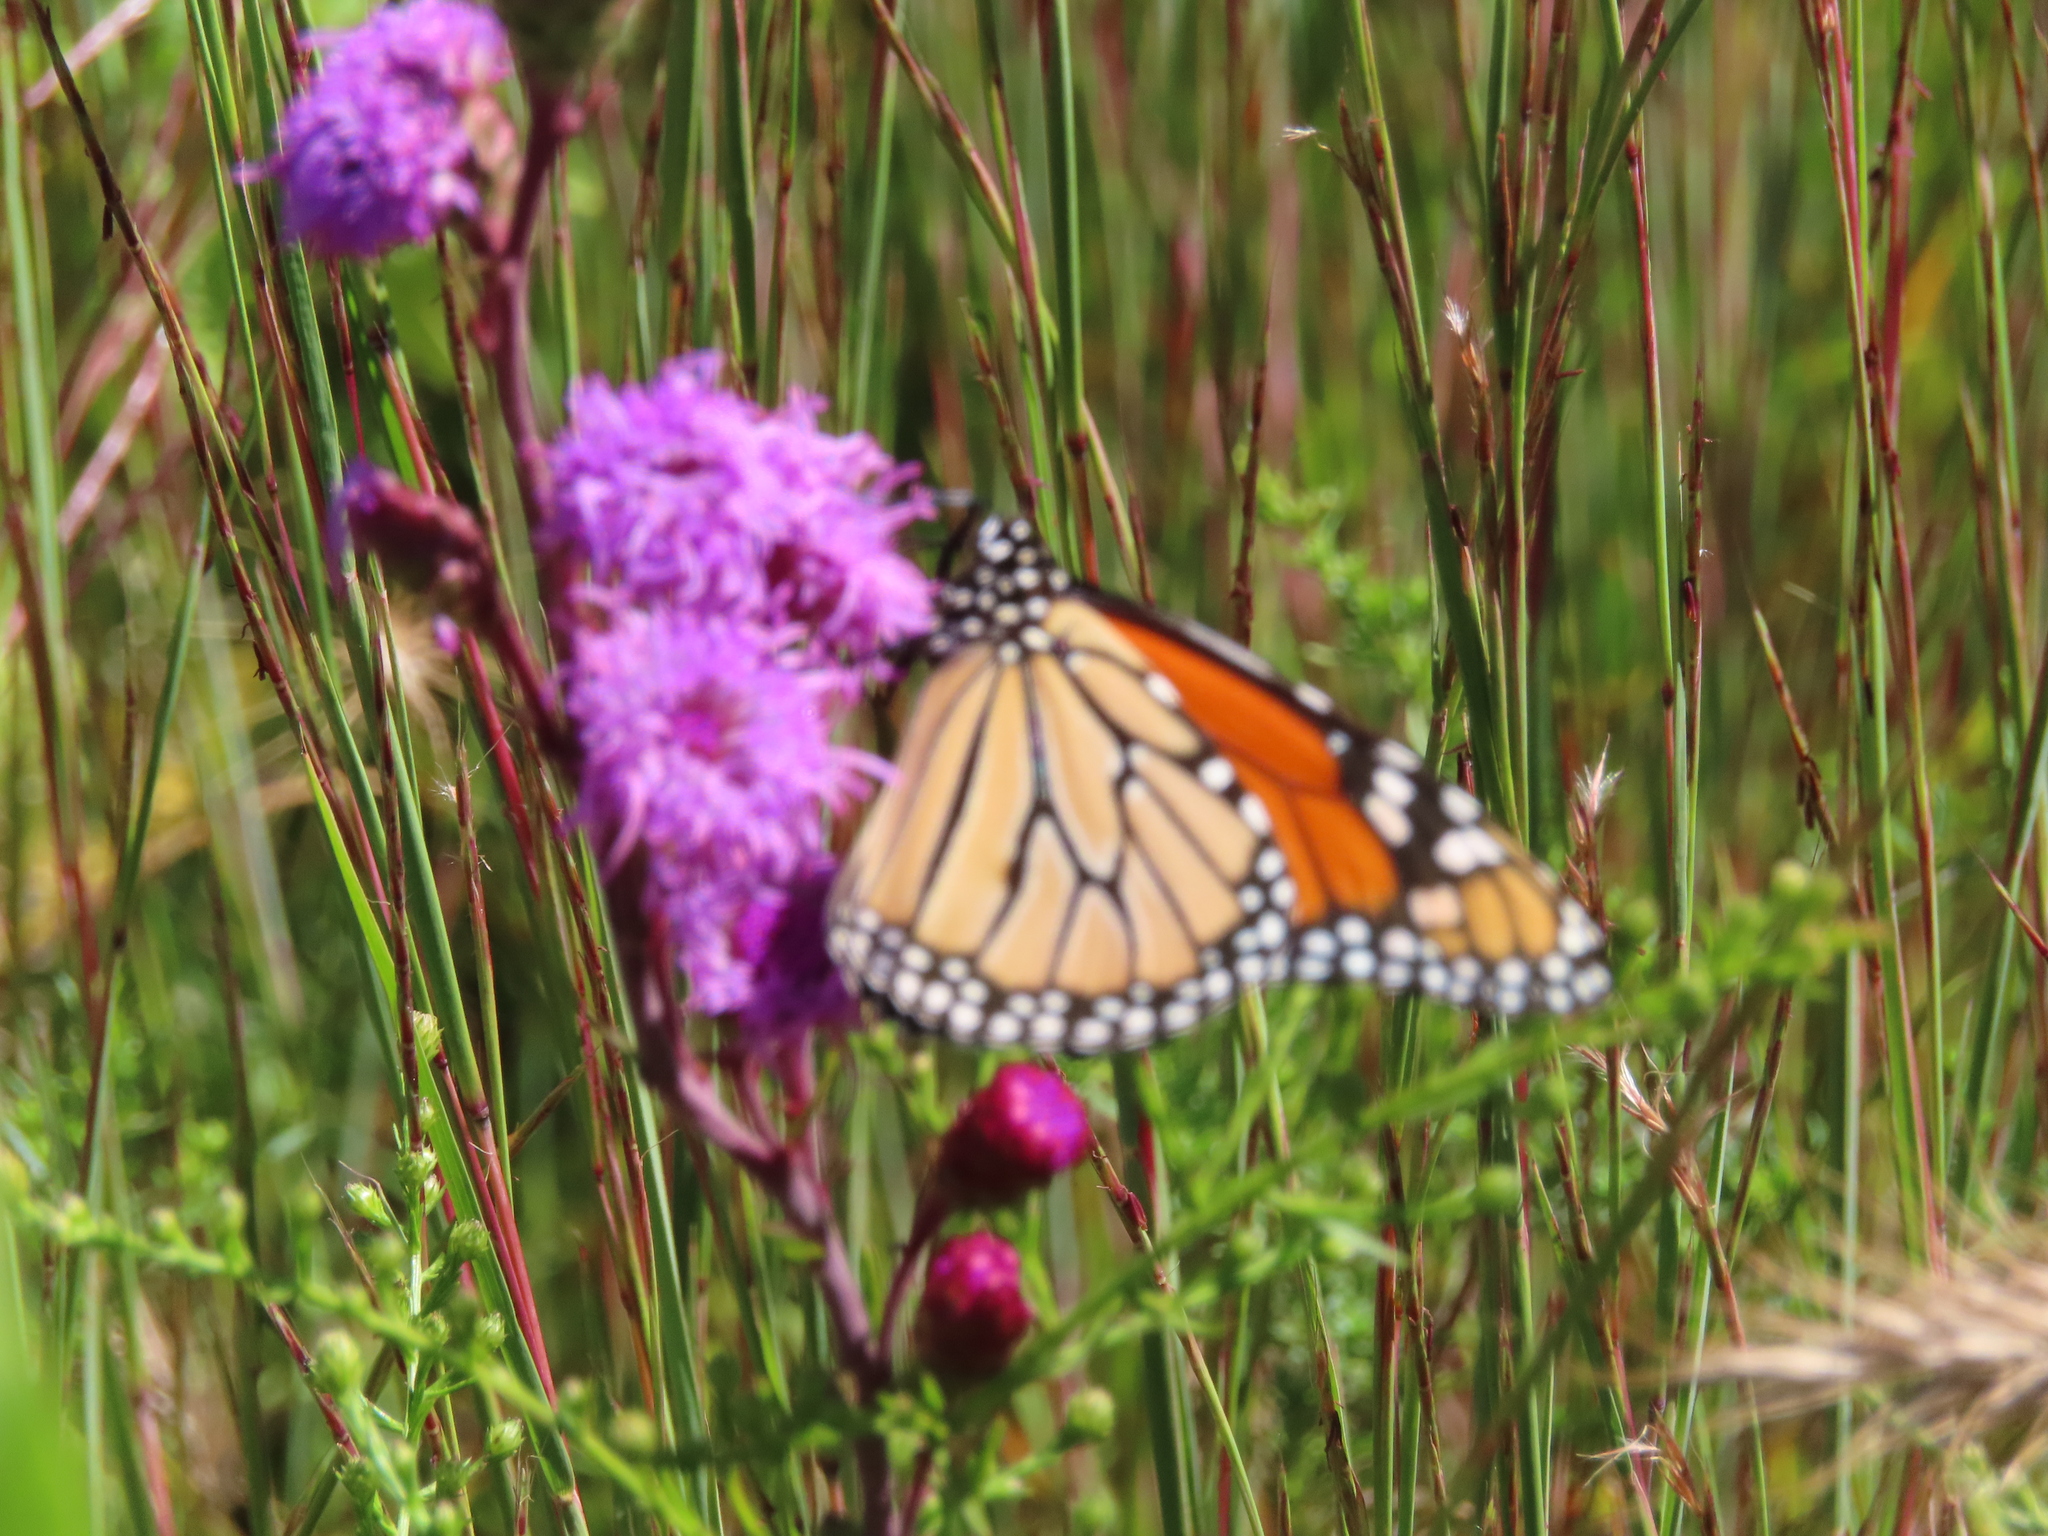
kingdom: Animalia
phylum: Arthropoda
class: Insecta
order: Lepidoptera
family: Nymphalidae
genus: Danaus
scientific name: Danaus plexippus
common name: Monarch
